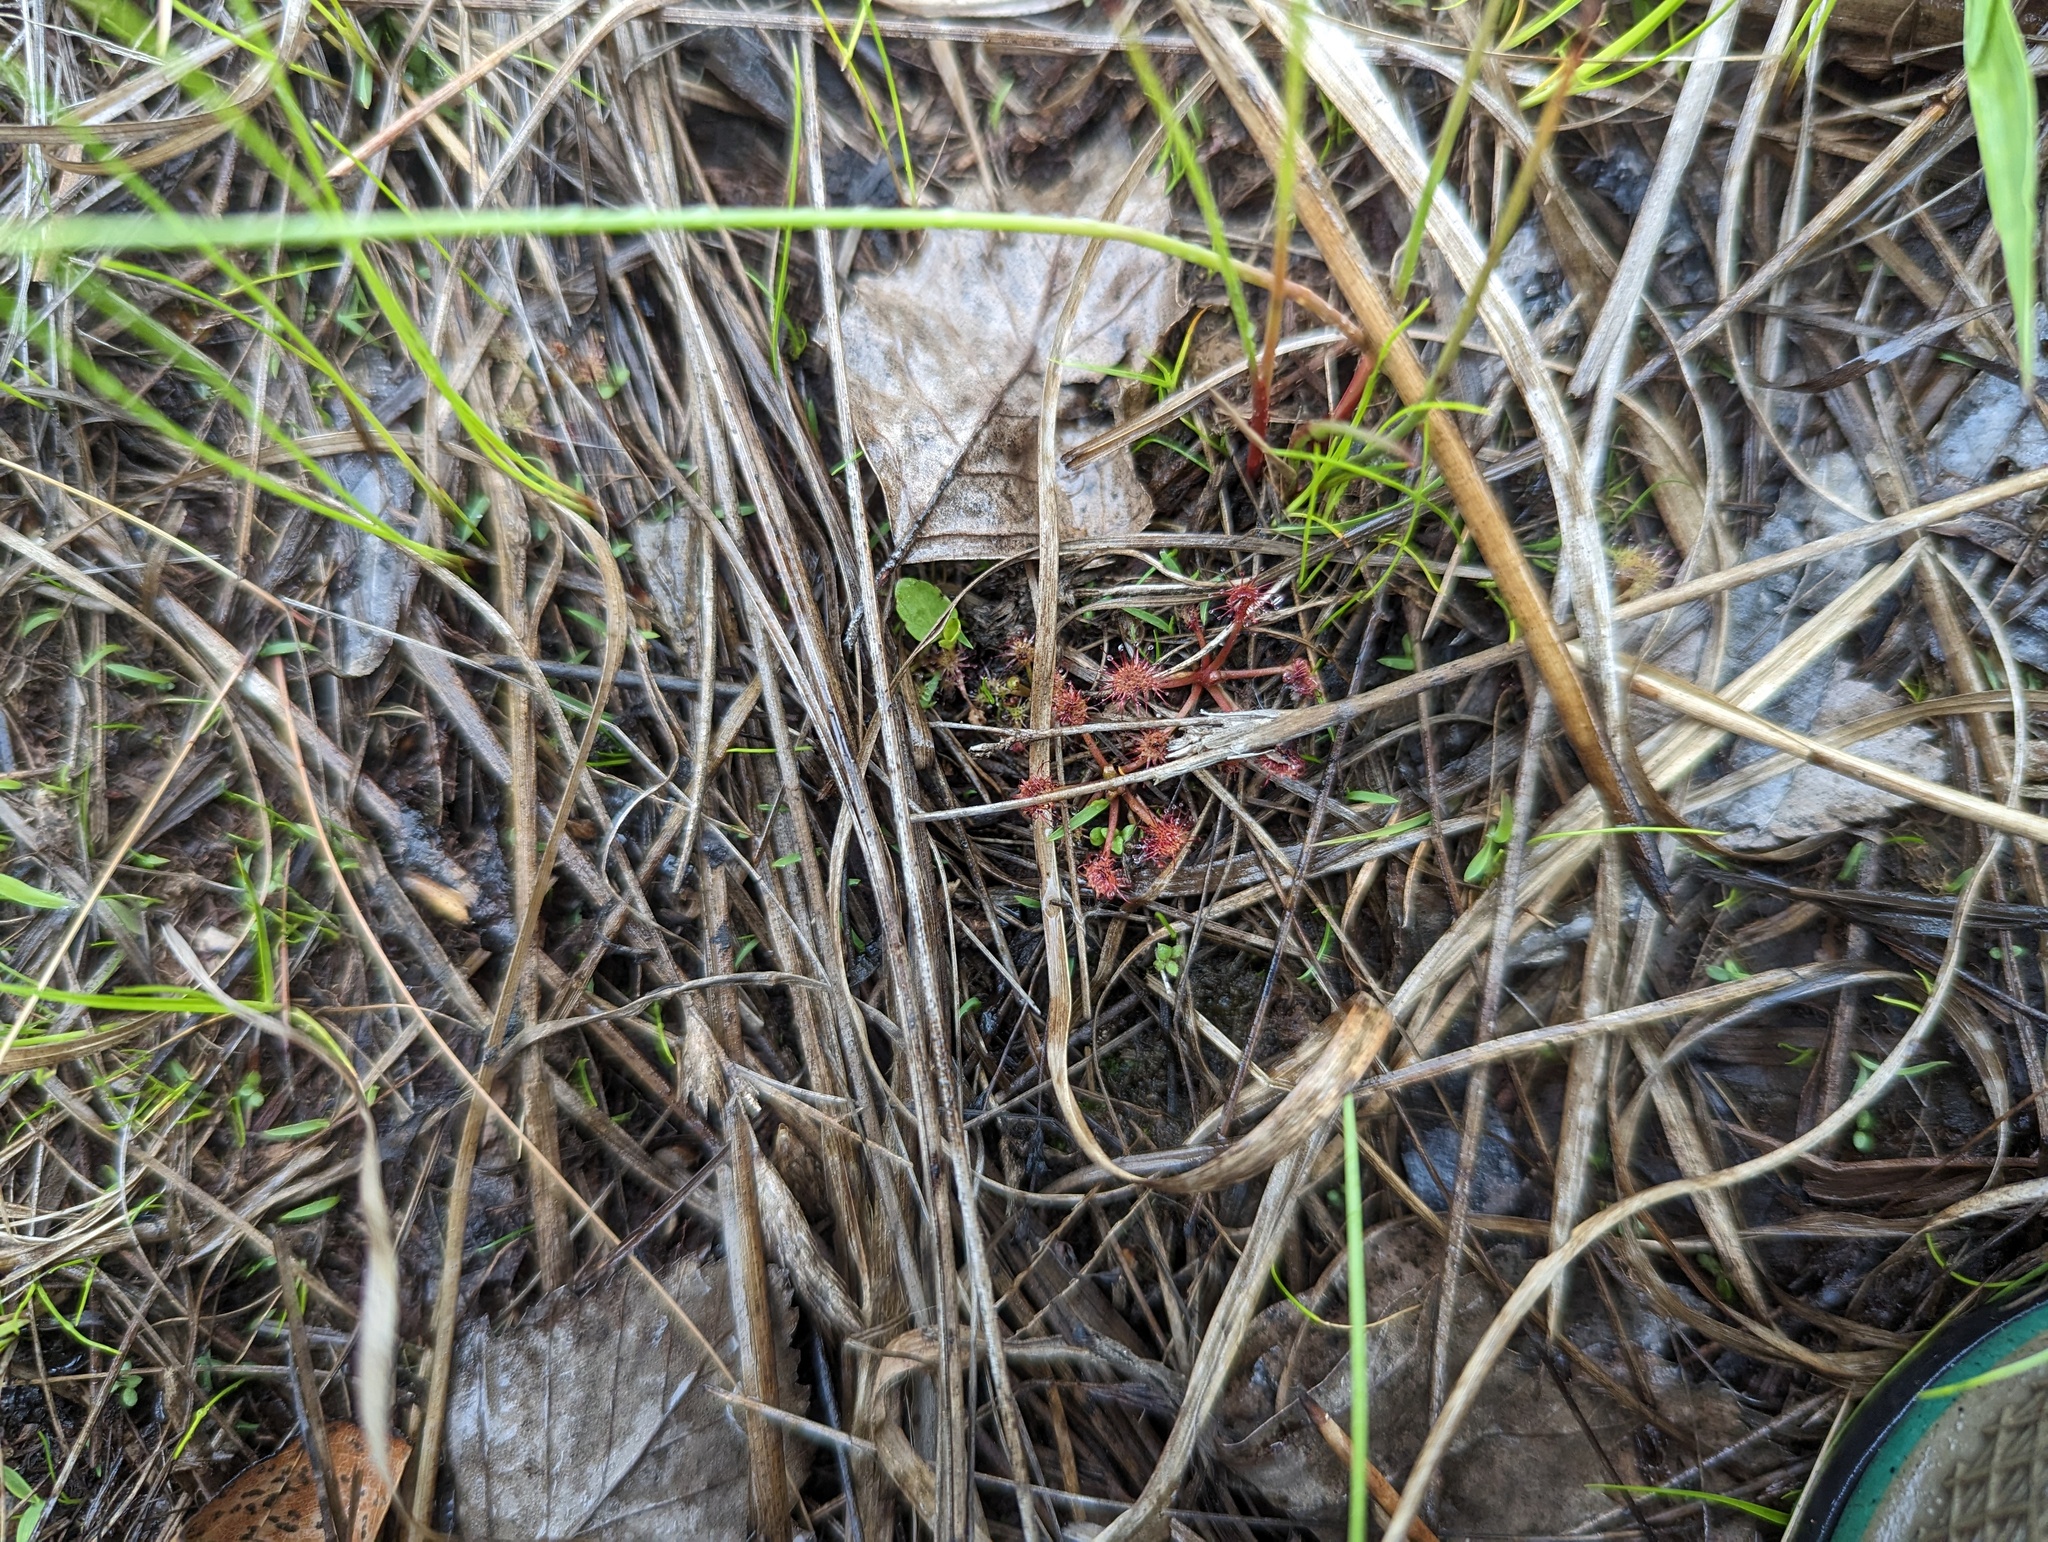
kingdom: Plantae
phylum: Tracheophyta
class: Magnoliopsida
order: Caryophyllales
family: Droseraceae
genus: Drosera
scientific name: Drosera intermedia
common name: Oblong-leaved sundew
